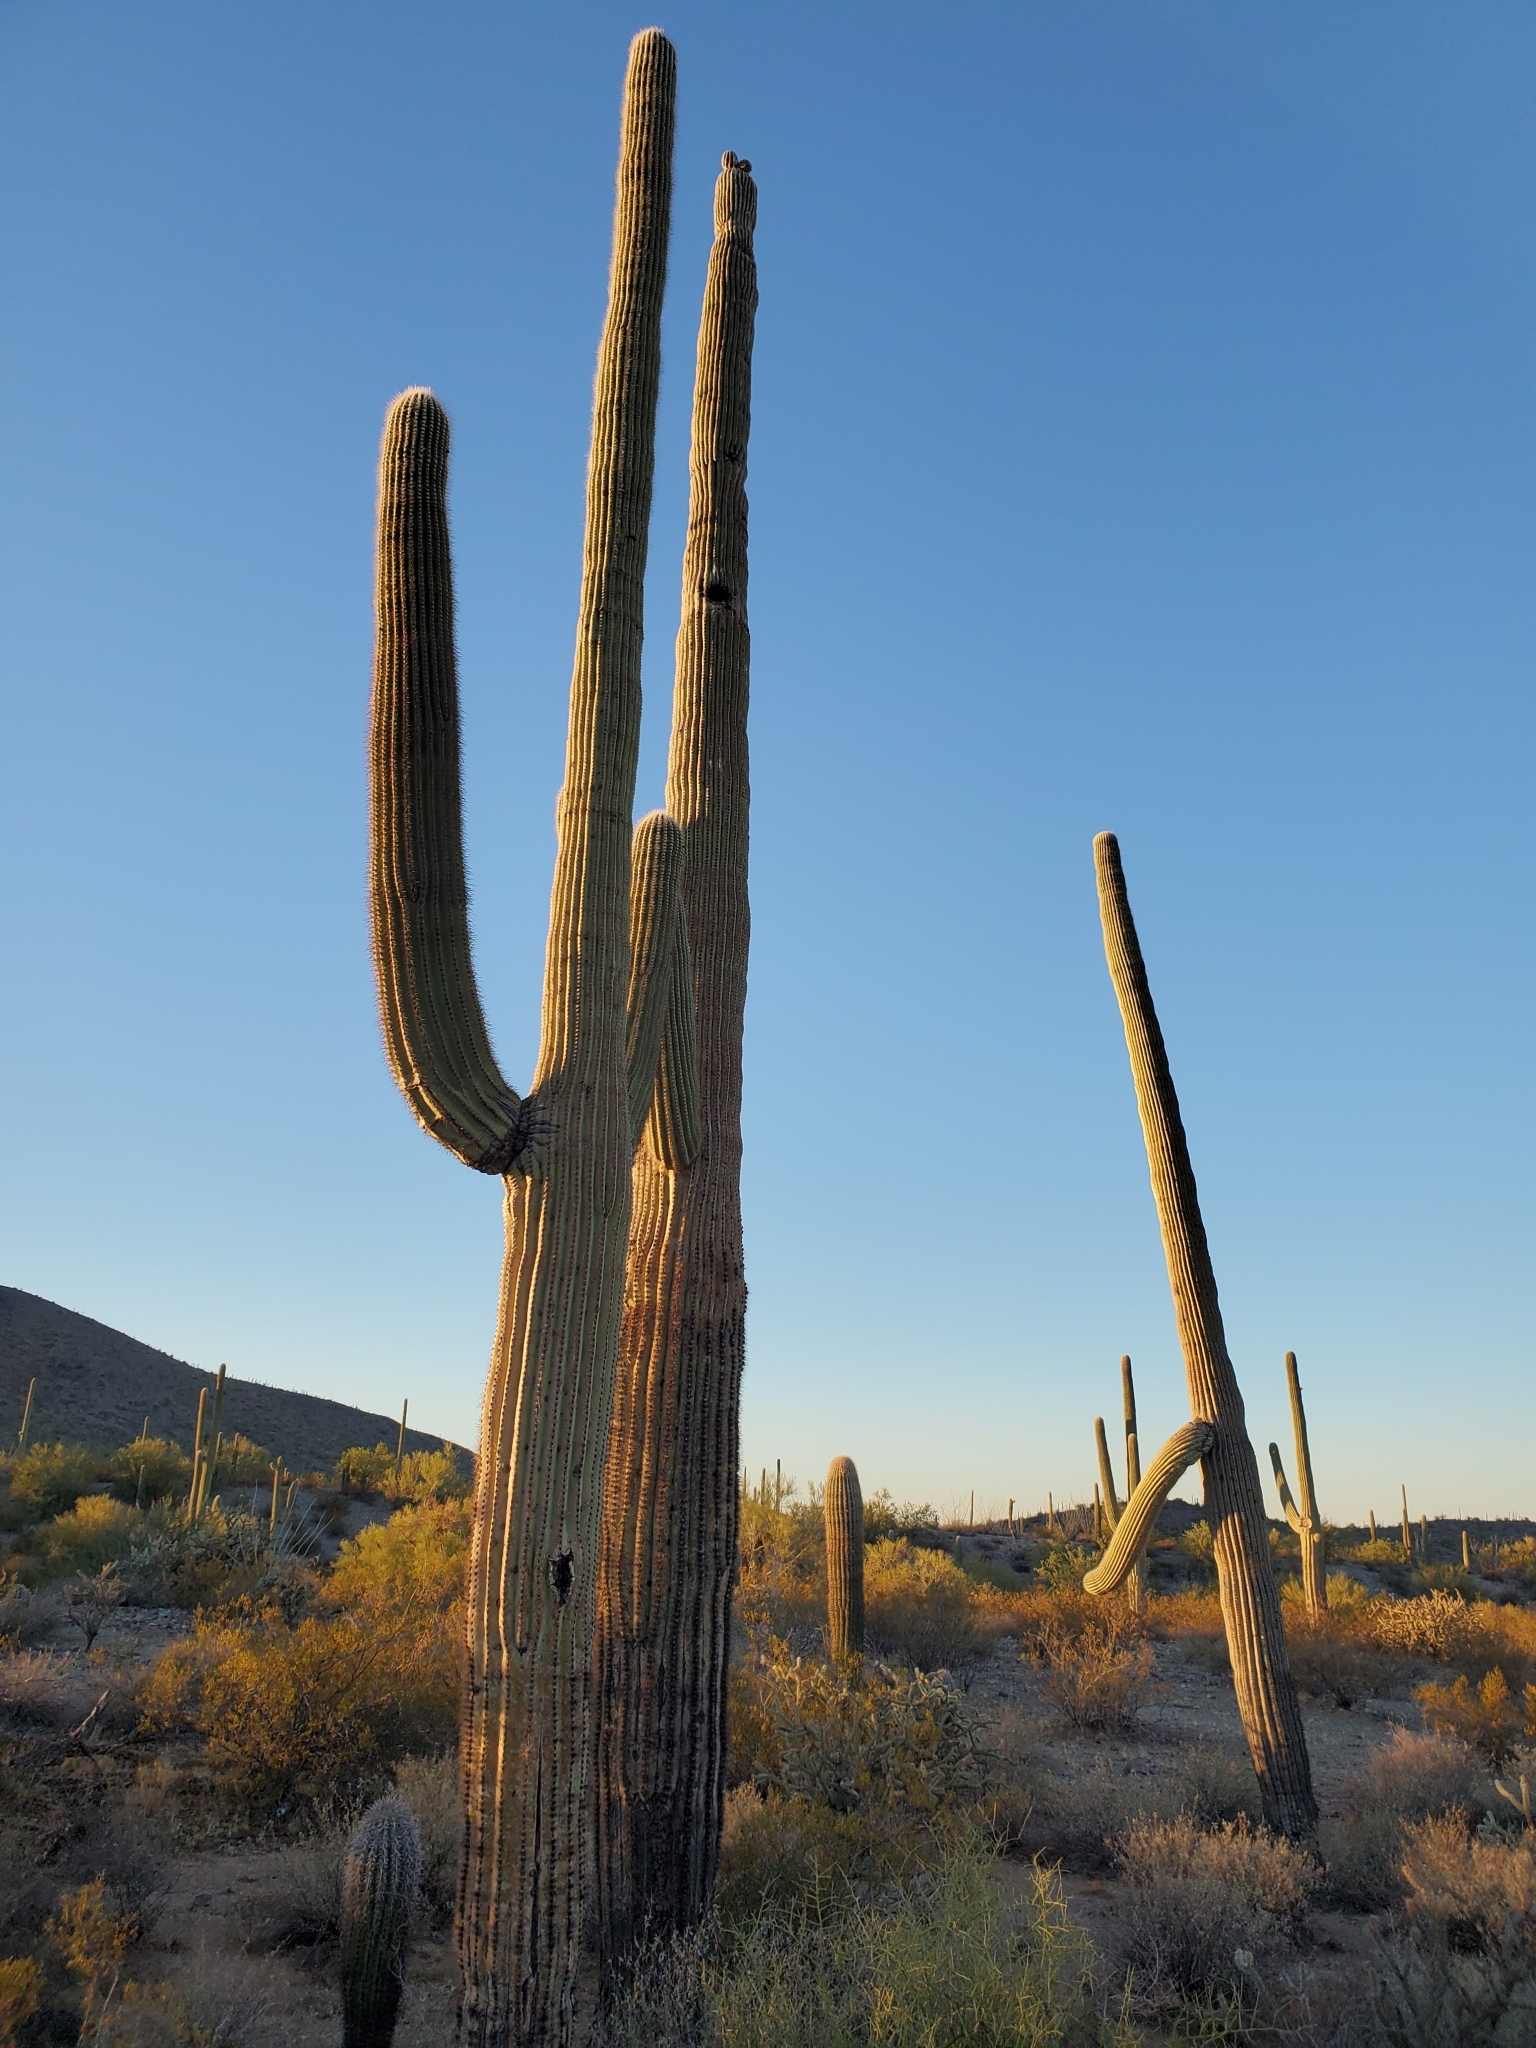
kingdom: Plantae
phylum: Tracheophyta
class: Magnoliopsida
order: Caryophyllales
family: Cactaceae
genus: Carnegiea
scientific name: Carnegiea gigantea
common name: Saguaro
